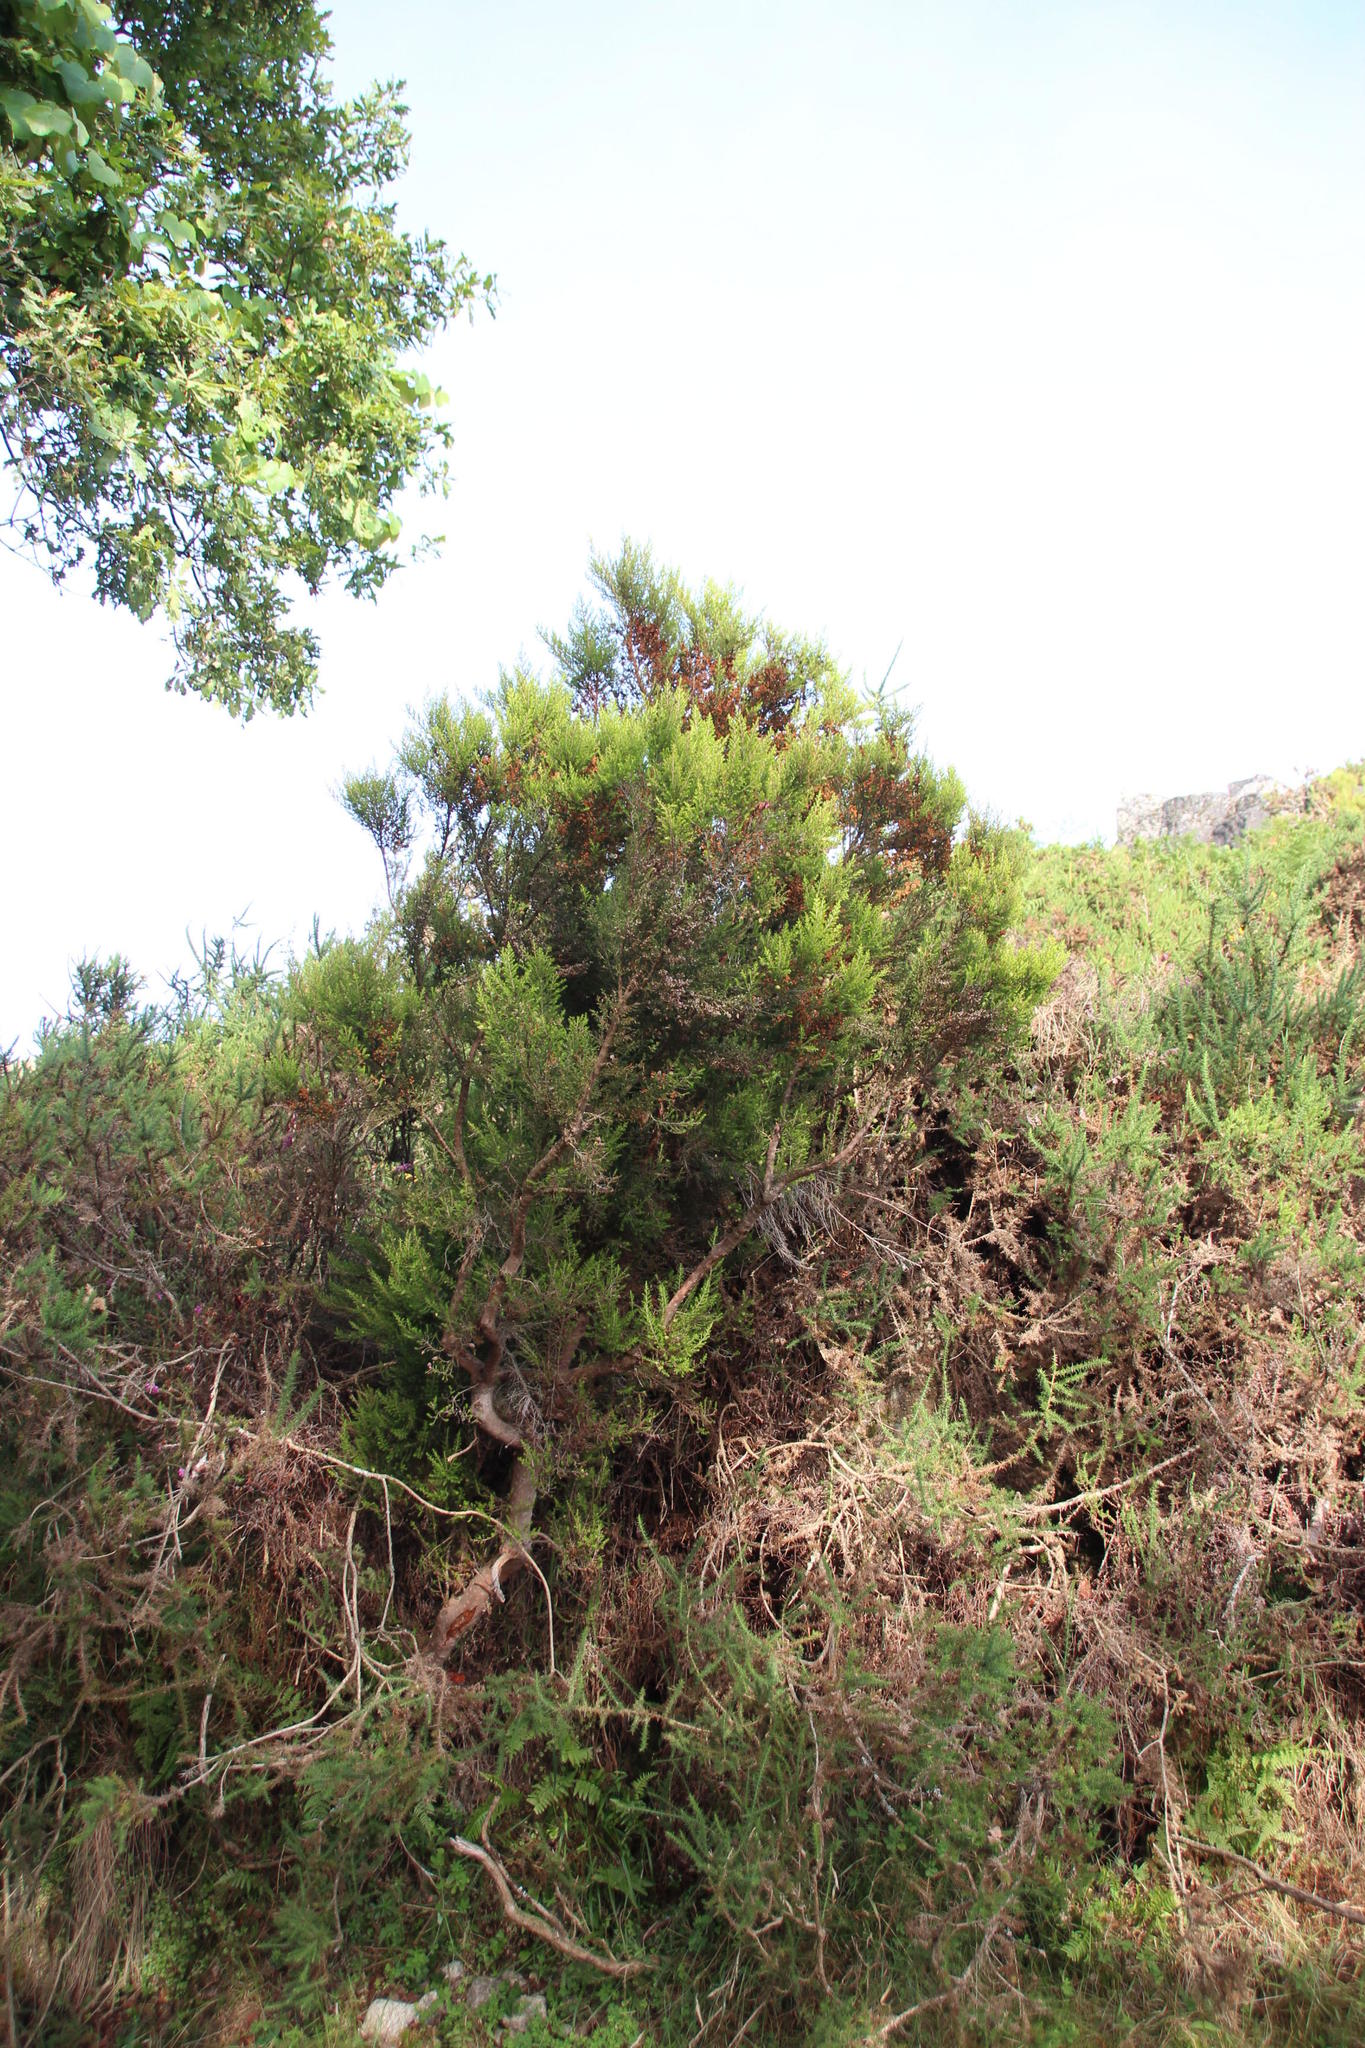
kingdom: Plantae
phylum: Tracheophyta
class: Magnoliopsida
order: Ericales
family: Ericaceae
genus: Erica
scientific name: Erica arborea
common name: Tree heath
